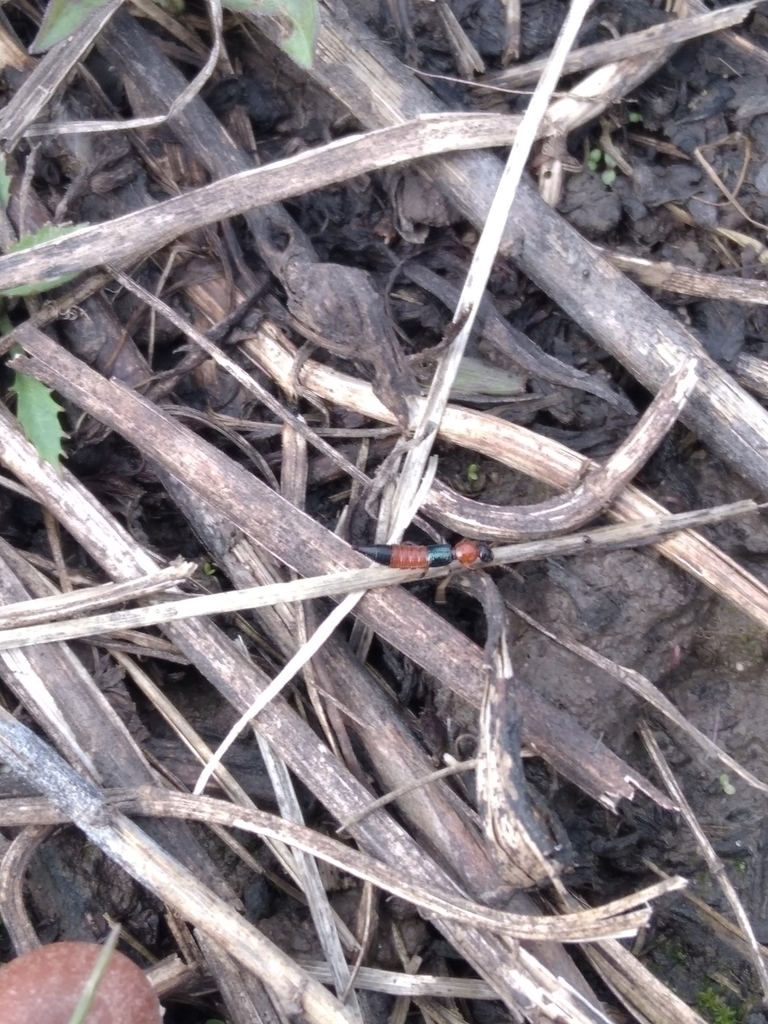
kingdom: Animalia
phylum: Arthropoda
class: Insecta
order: Coleoptera
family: Staphylinidae
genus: Paederus
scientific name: Paederus
